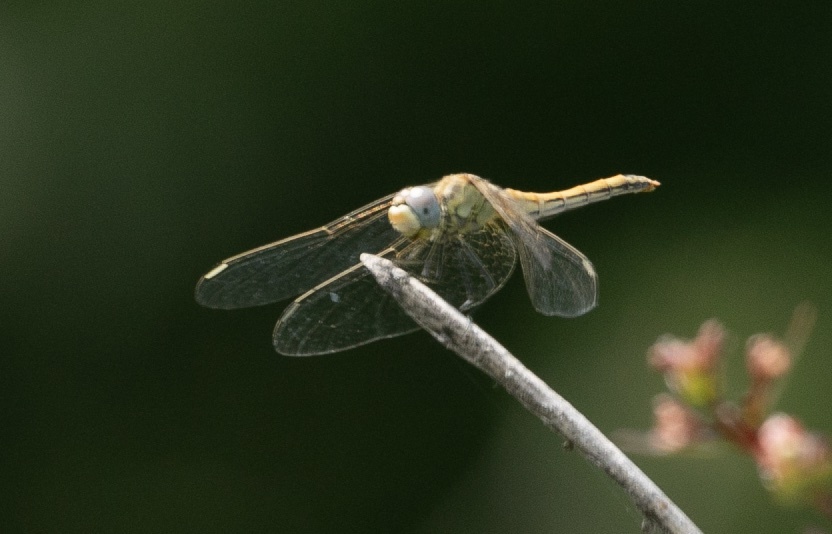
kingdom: Animalia
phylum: Arthropoda
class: Insecta
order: Odonata
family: Libellulidae
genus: Sympetrum
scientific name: Sympetrum fonscolombii
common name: Red-veined darter
